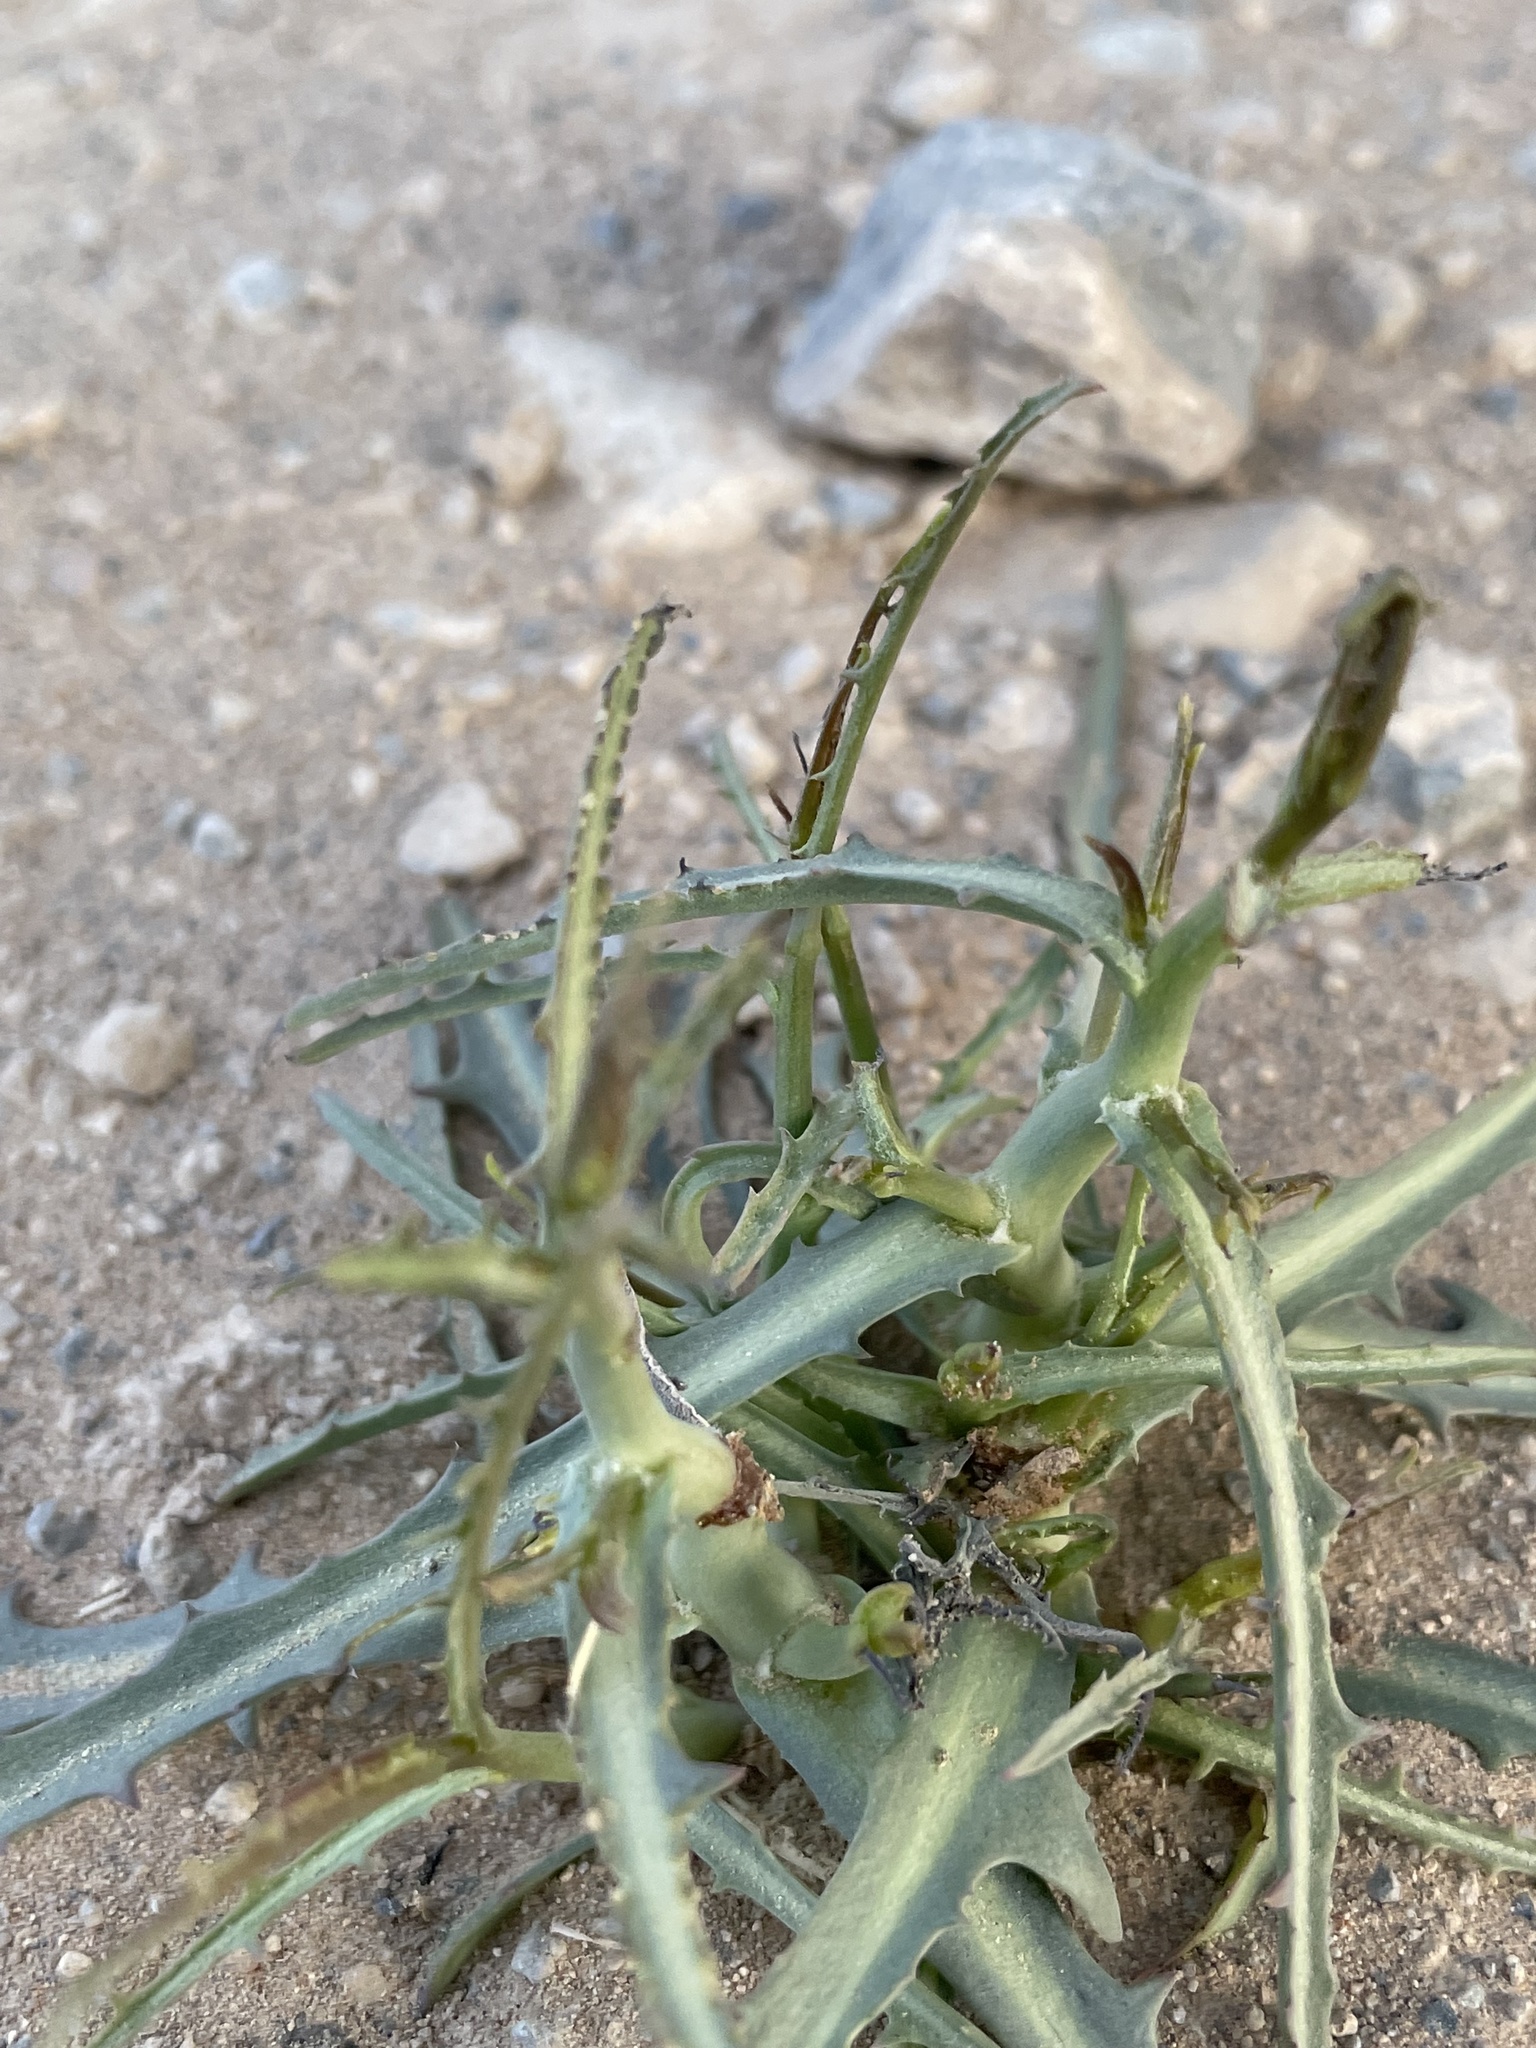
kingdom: Plantae
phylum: Tracheophyta
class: Magnoliopsida
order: Asterales
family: Asteraceae
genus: Stephanomeria
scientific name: Stephanomeria pauciflora
